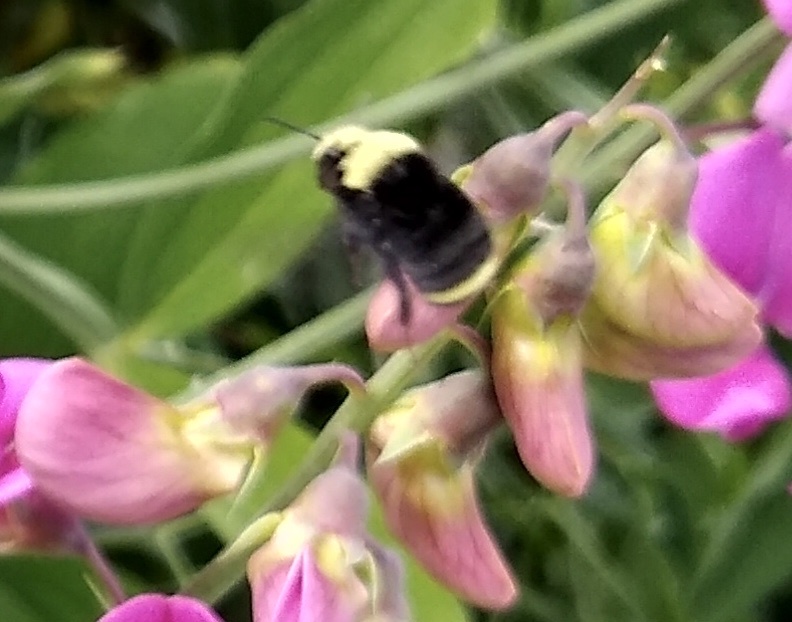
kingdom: Animalia
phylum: Arthropoda
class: Insecta
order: Hymenoptera
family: Apidae
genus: Bombus
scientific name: Bombus vosnesenskii
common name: Vosnesensky bumble bee
